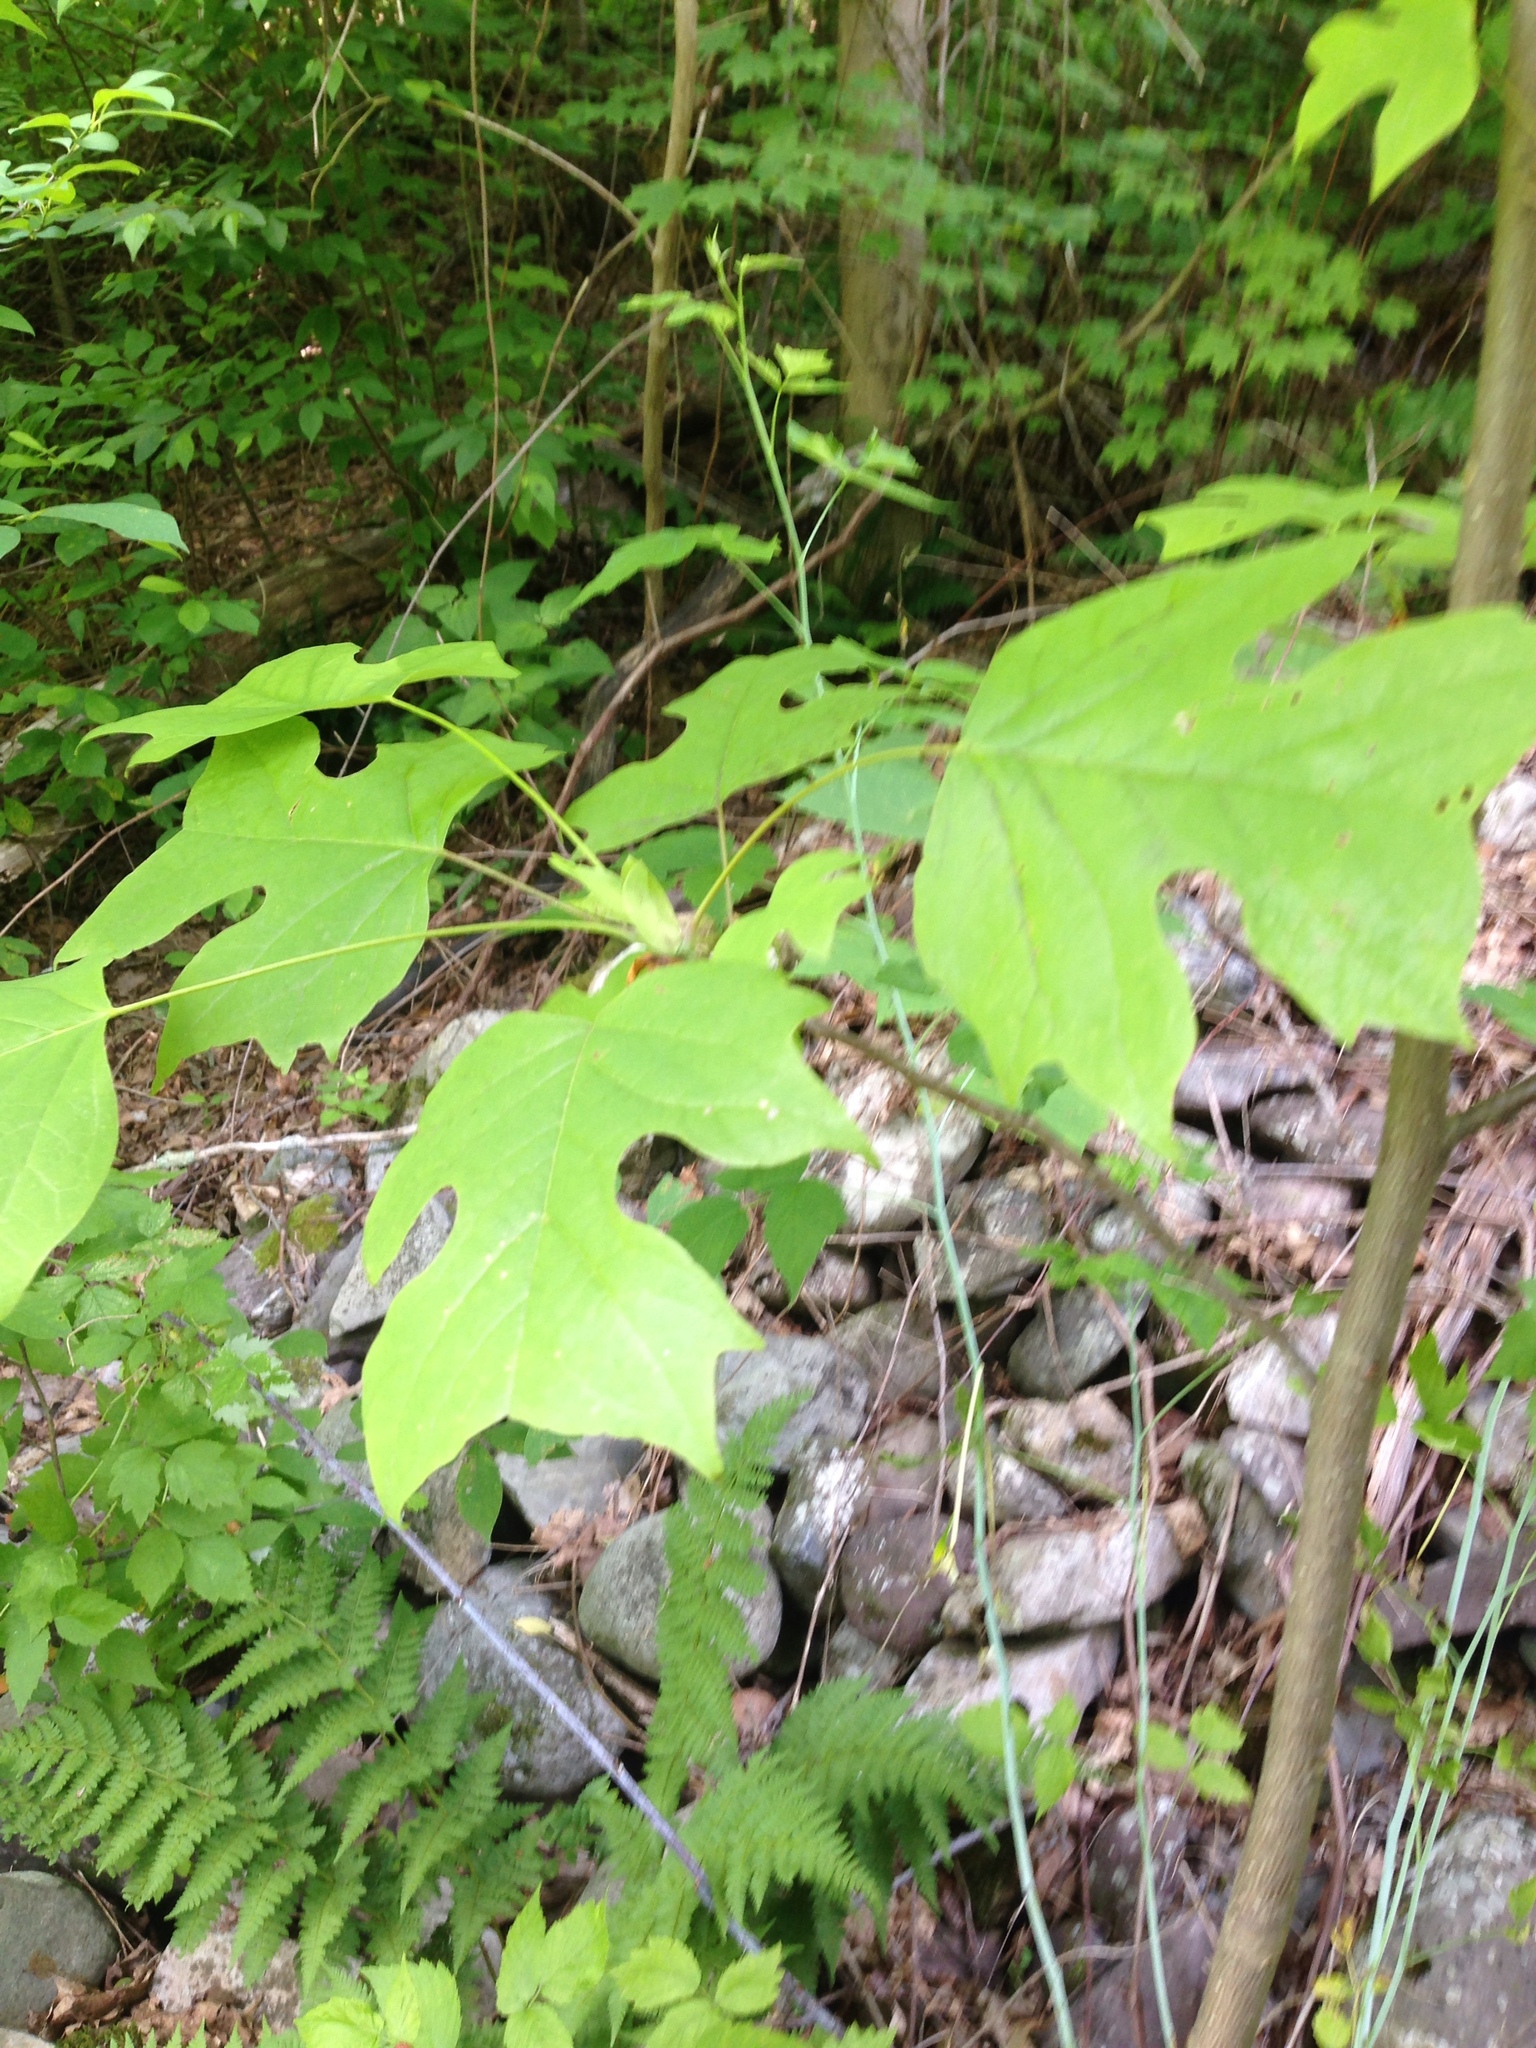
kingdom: Plantae
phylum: Tracheophyta
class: Magnoliopsida
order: Magnoliales
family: Magnoliaceae
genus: Liriodendron
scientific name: Liriodendron tulipifera
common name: Tulip tree
